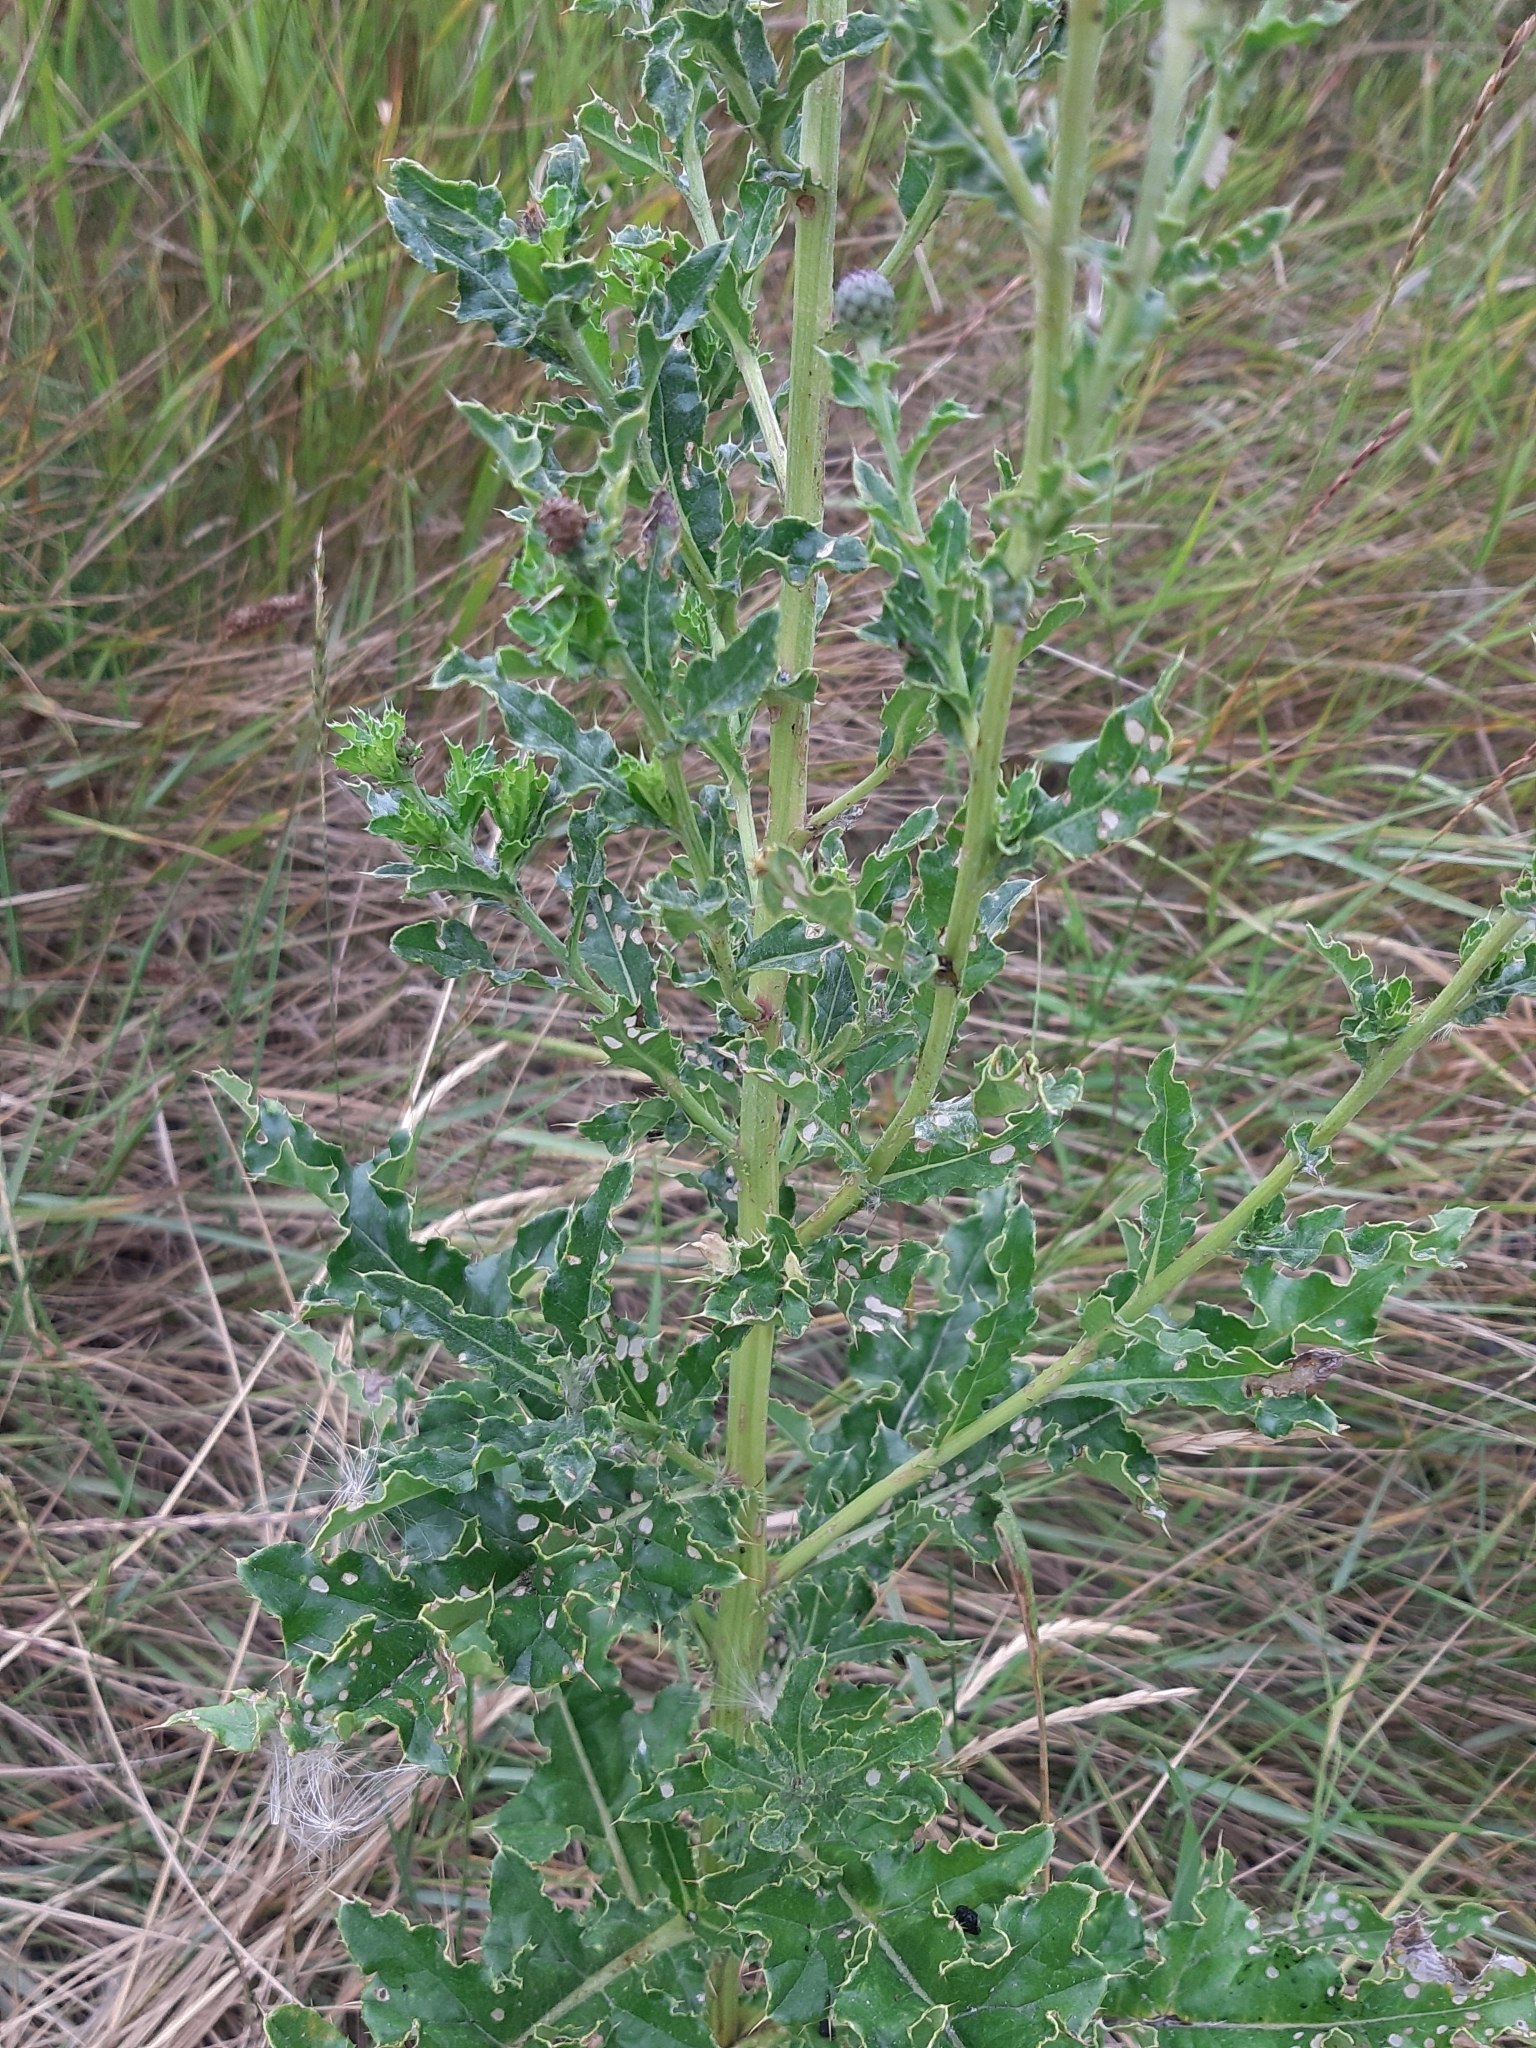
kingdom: Plantae
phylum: Tracheophyta
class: Magnoliopsida
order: Asterales
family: Asteraceae
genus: Cirsium
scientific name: Cirsium arvense
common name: Creeping thistle
